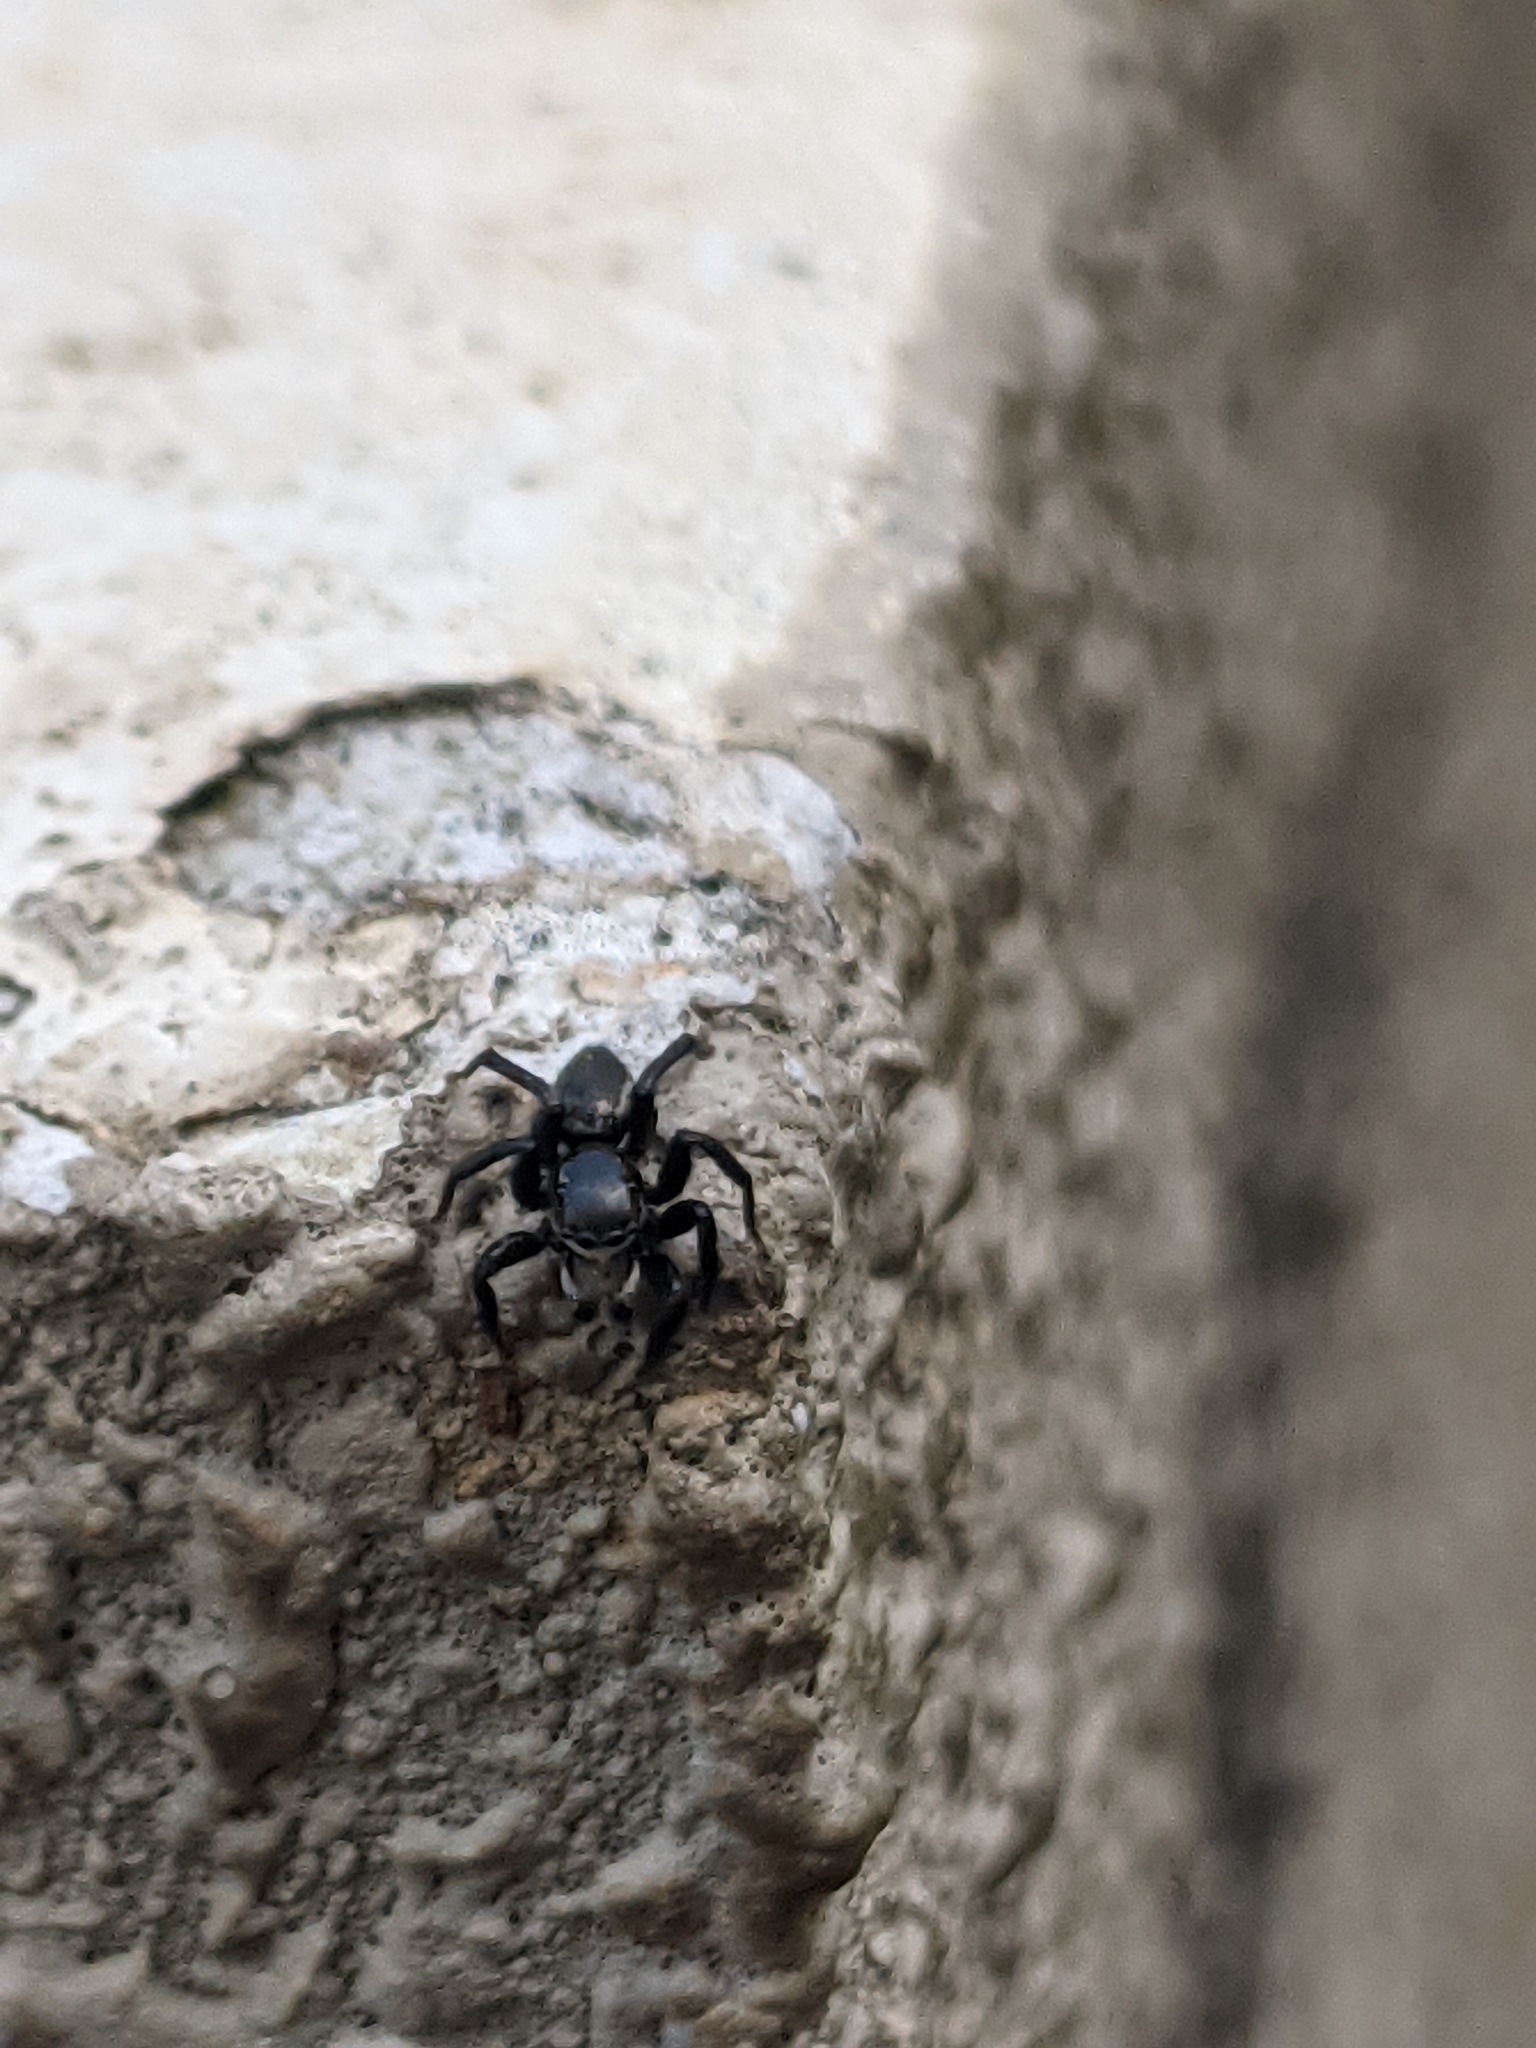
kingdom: Animalia
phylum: Arthropoda
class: Arachnida
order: Araneae
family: Salticidae
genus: Stenaelurillus
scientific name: Stenaelurillus albus
